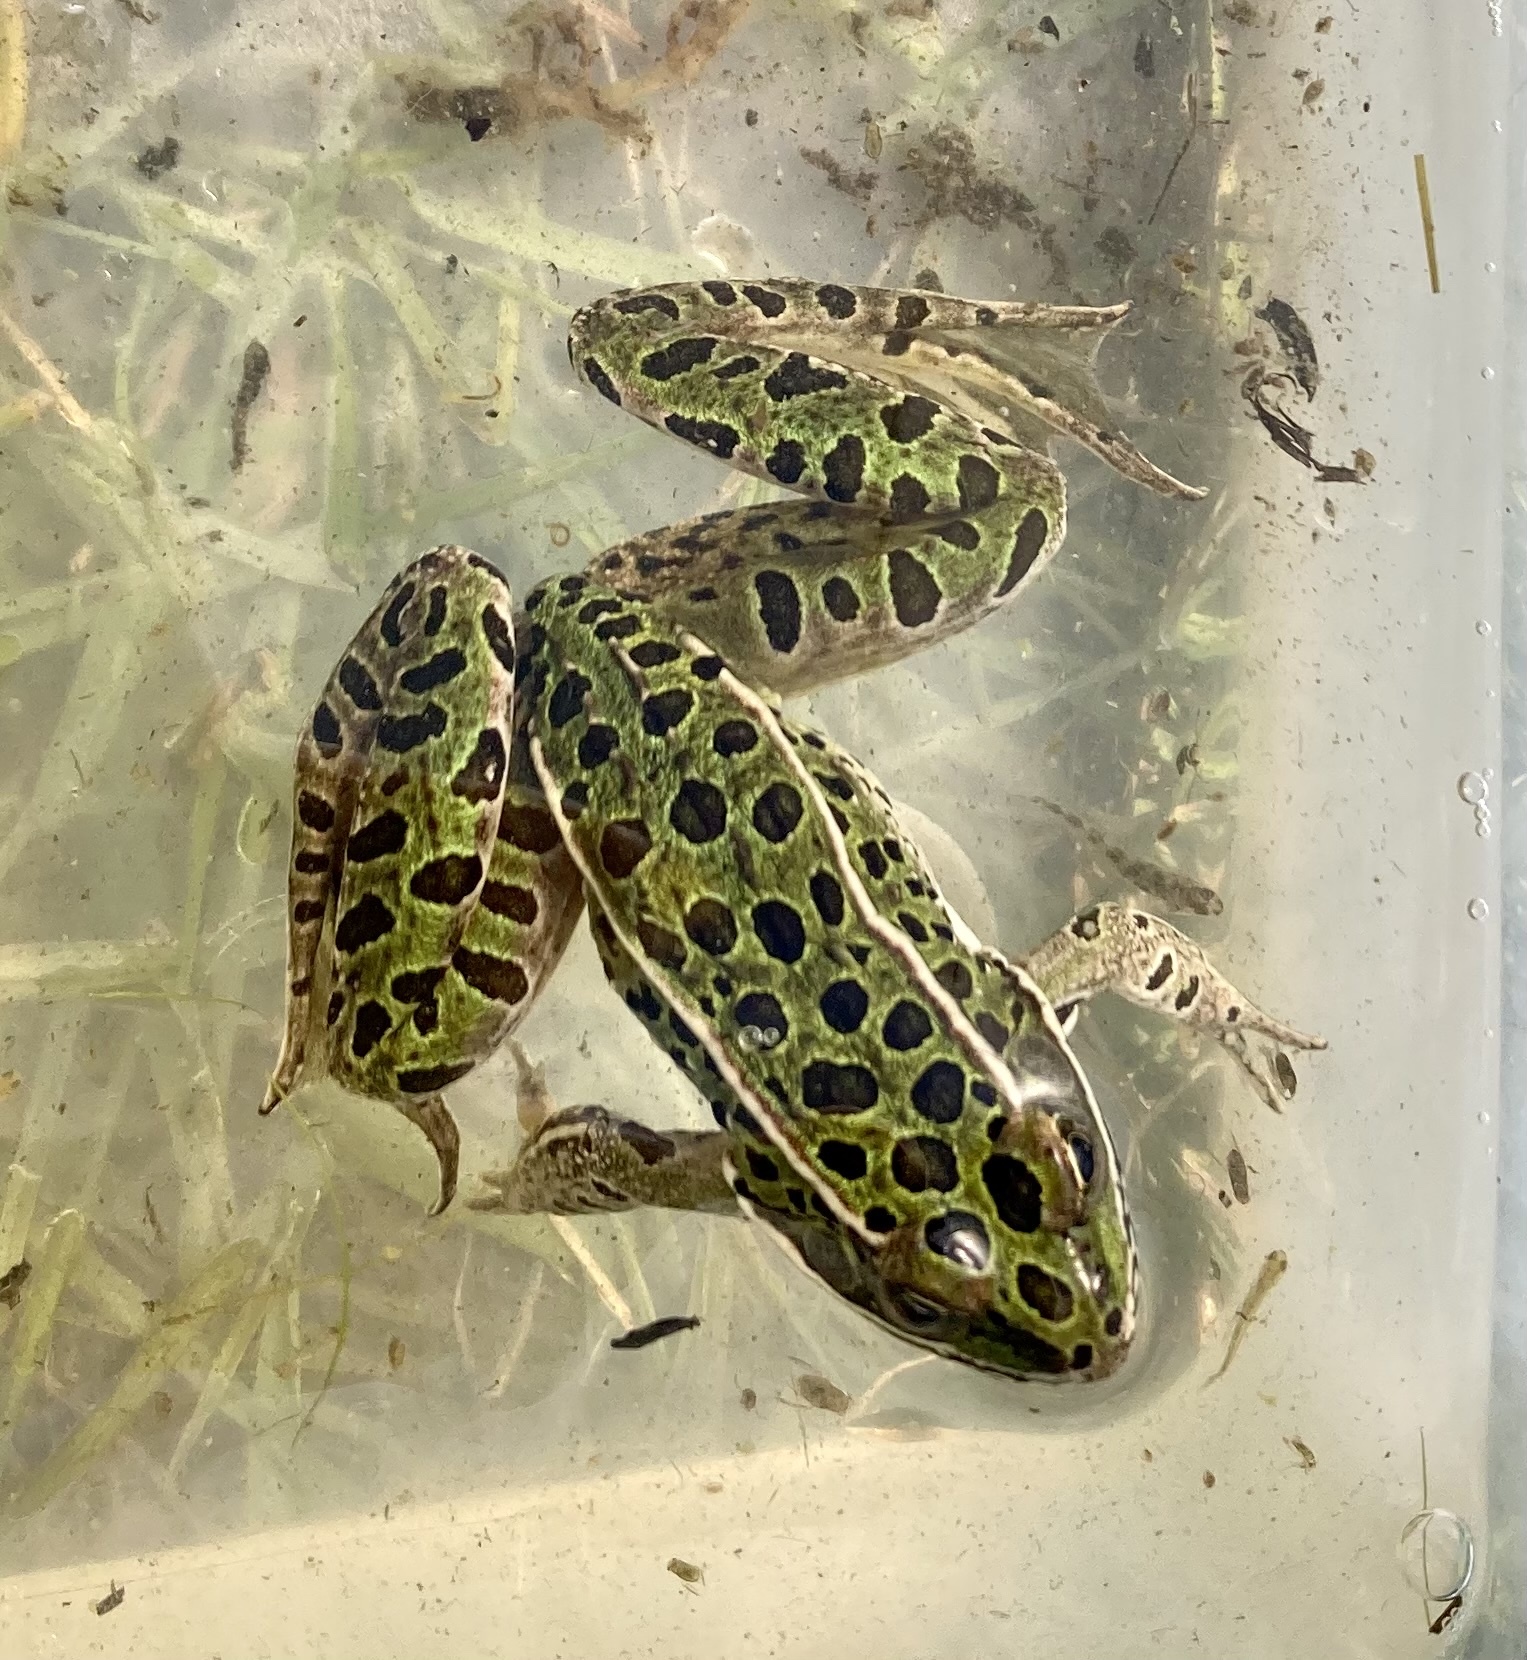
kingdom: Animalia
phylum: Chordata
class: Amphibia
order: Anura
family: Ranidae
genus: Lithobates
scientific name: Lithobates pipiens
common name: Northern leopard frog
